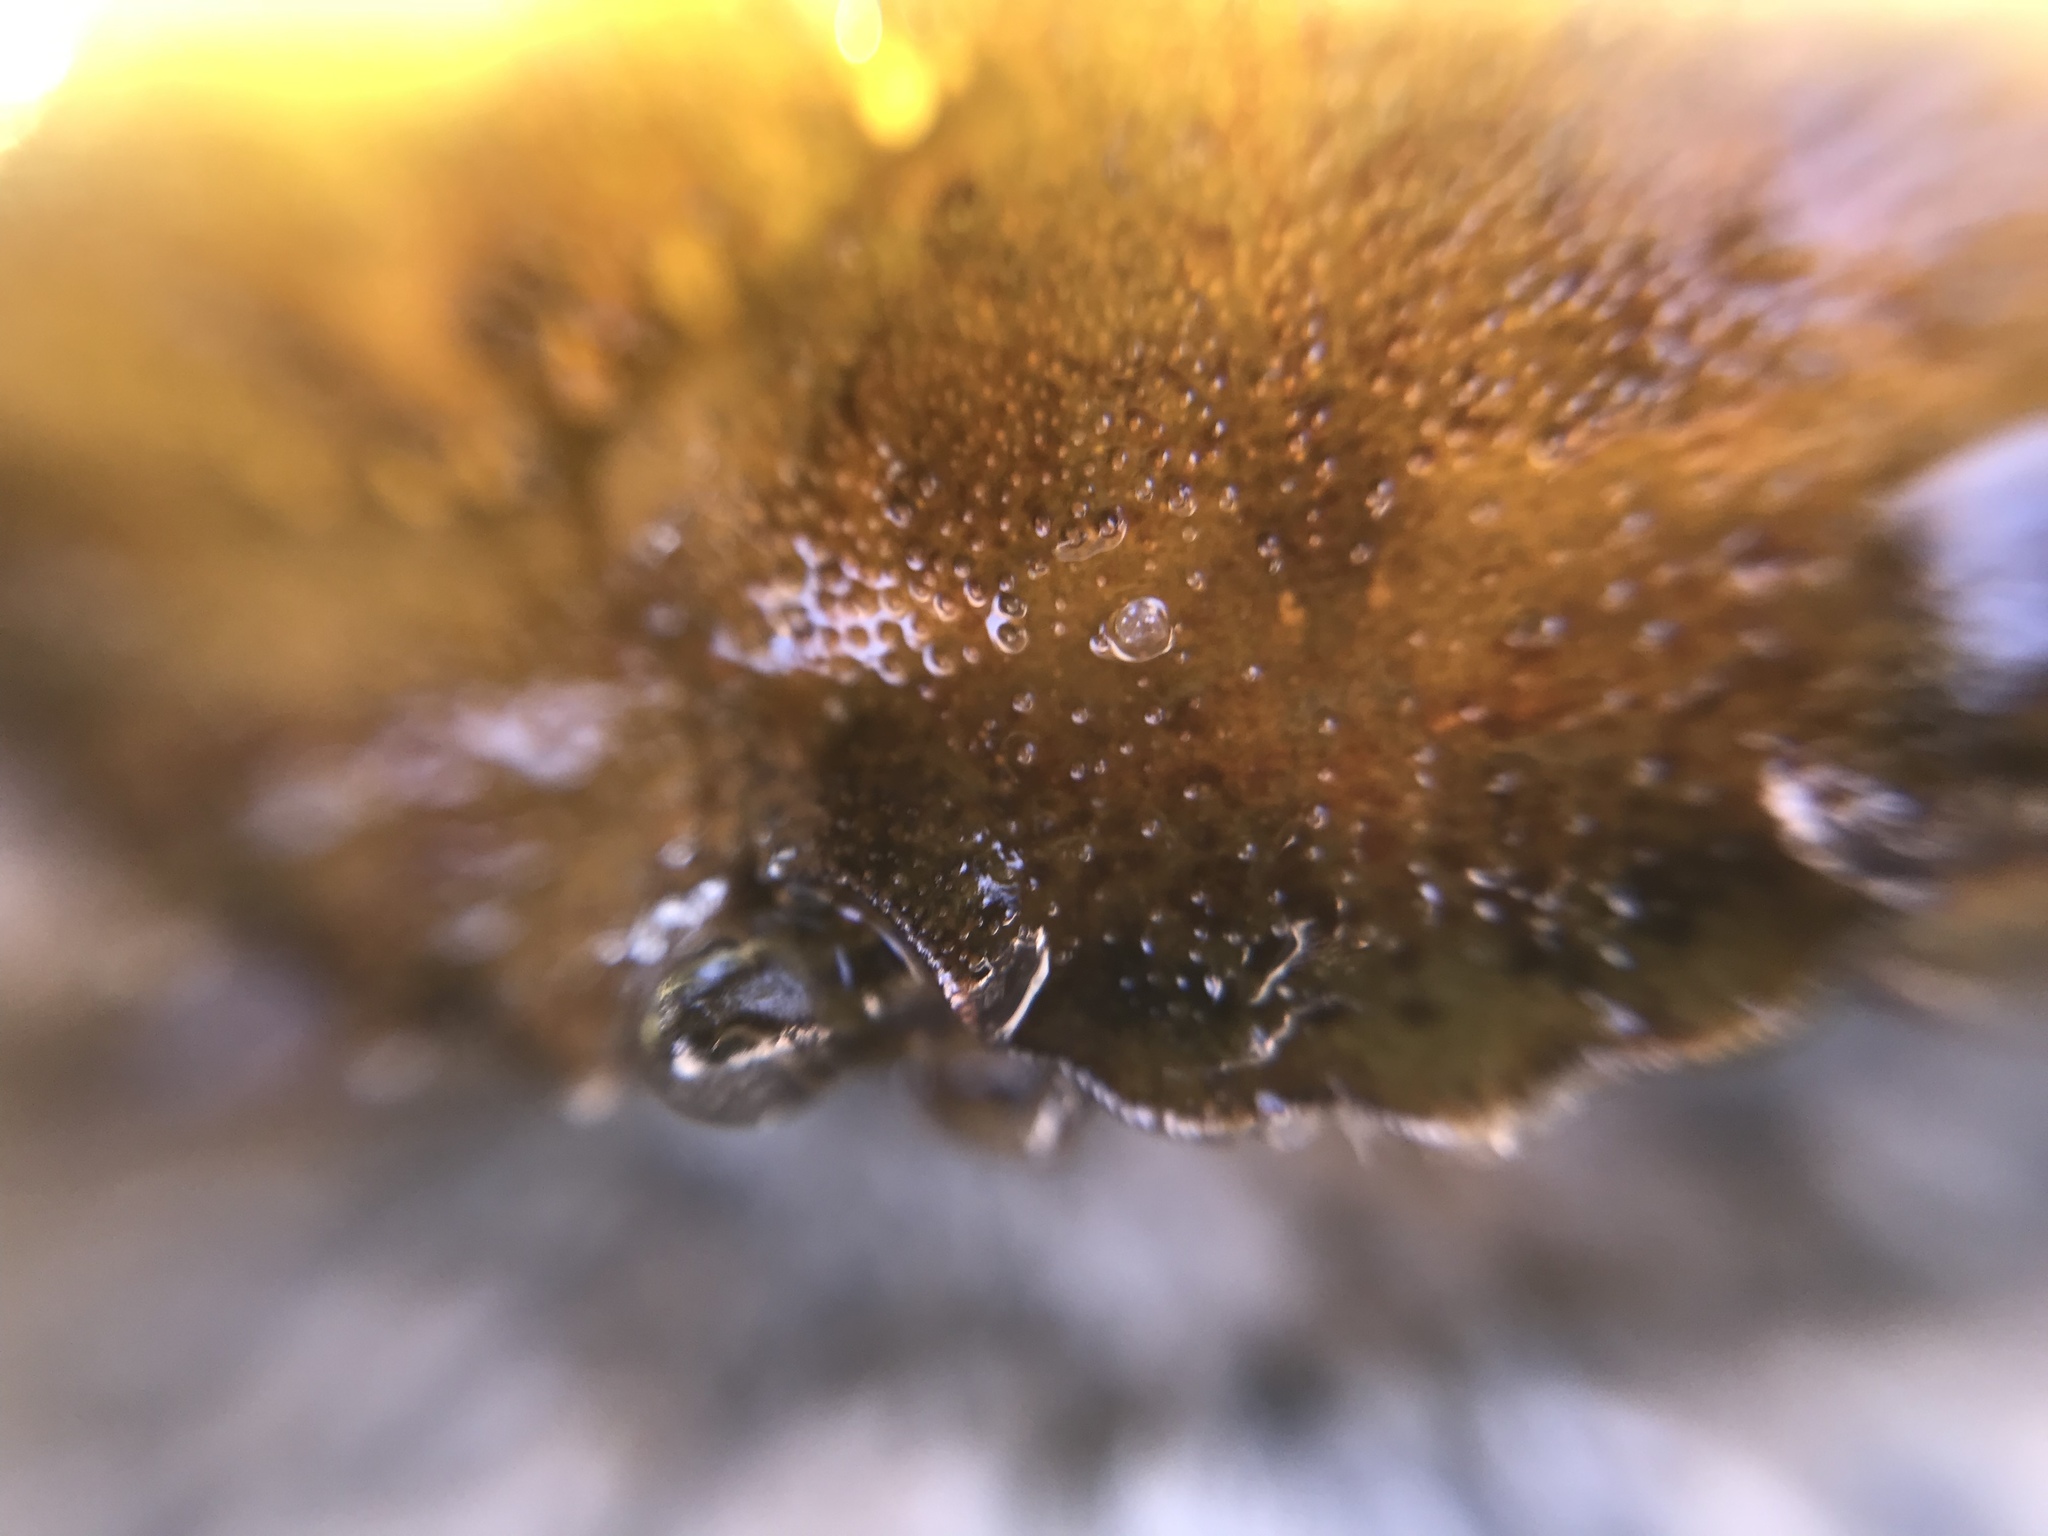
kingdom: Animalia
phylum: Arthropoda
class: Malacostraca
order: Decapoda
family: Carcinidae
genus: Carcinus
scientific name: Carcinus maenas
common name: European green crab
